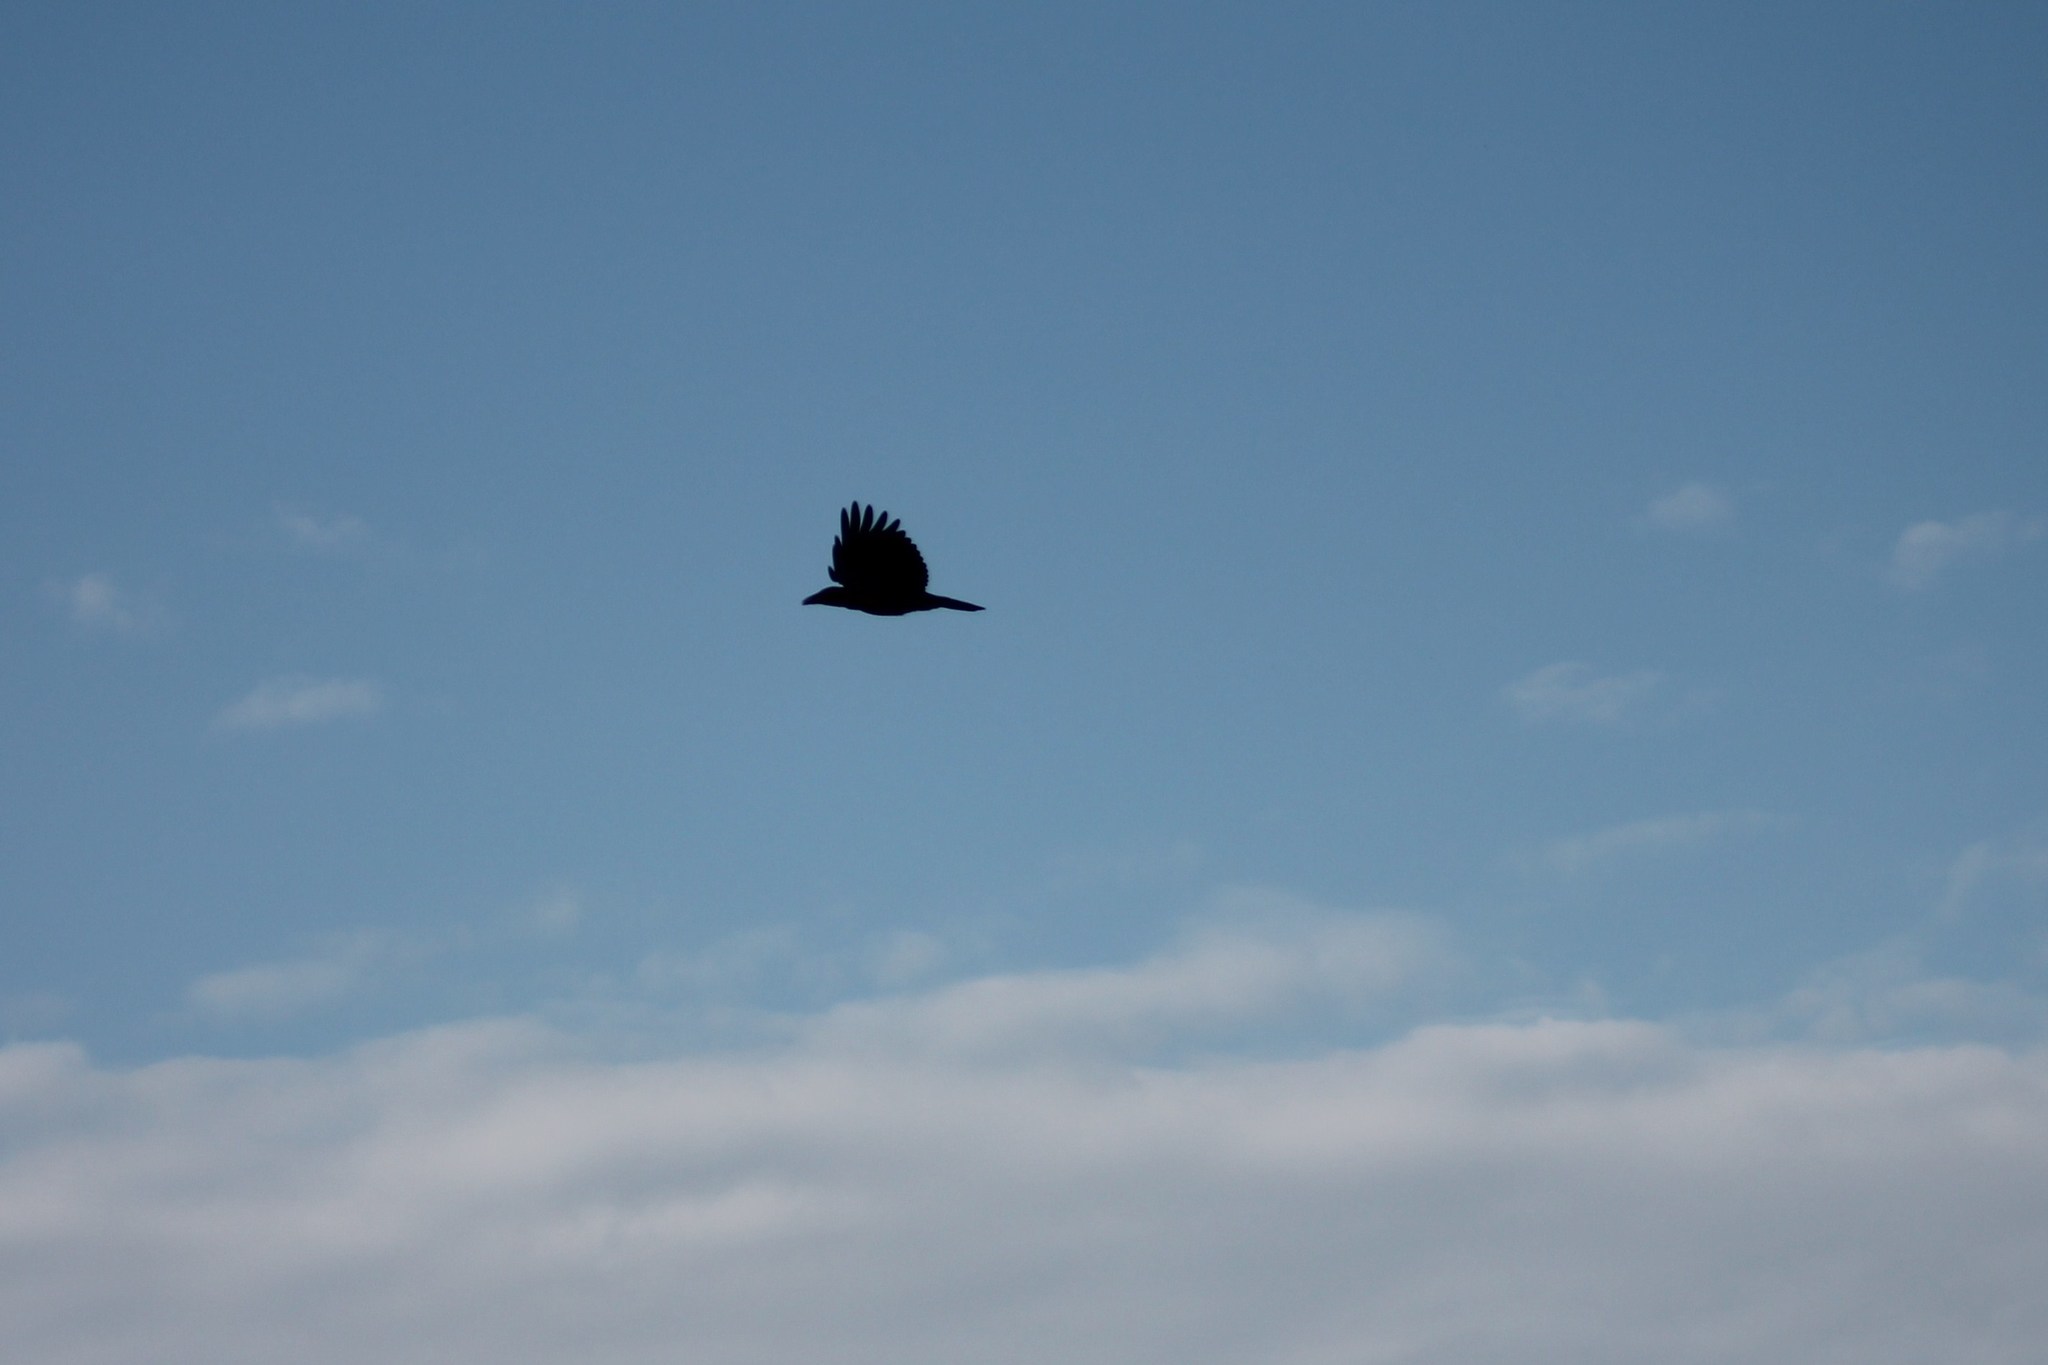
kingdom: Animalia
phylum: Chordata
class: Aves
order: Passeriformes
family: Corvidae
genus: Corvus
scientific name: Corvus corone
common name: Carrion crow
